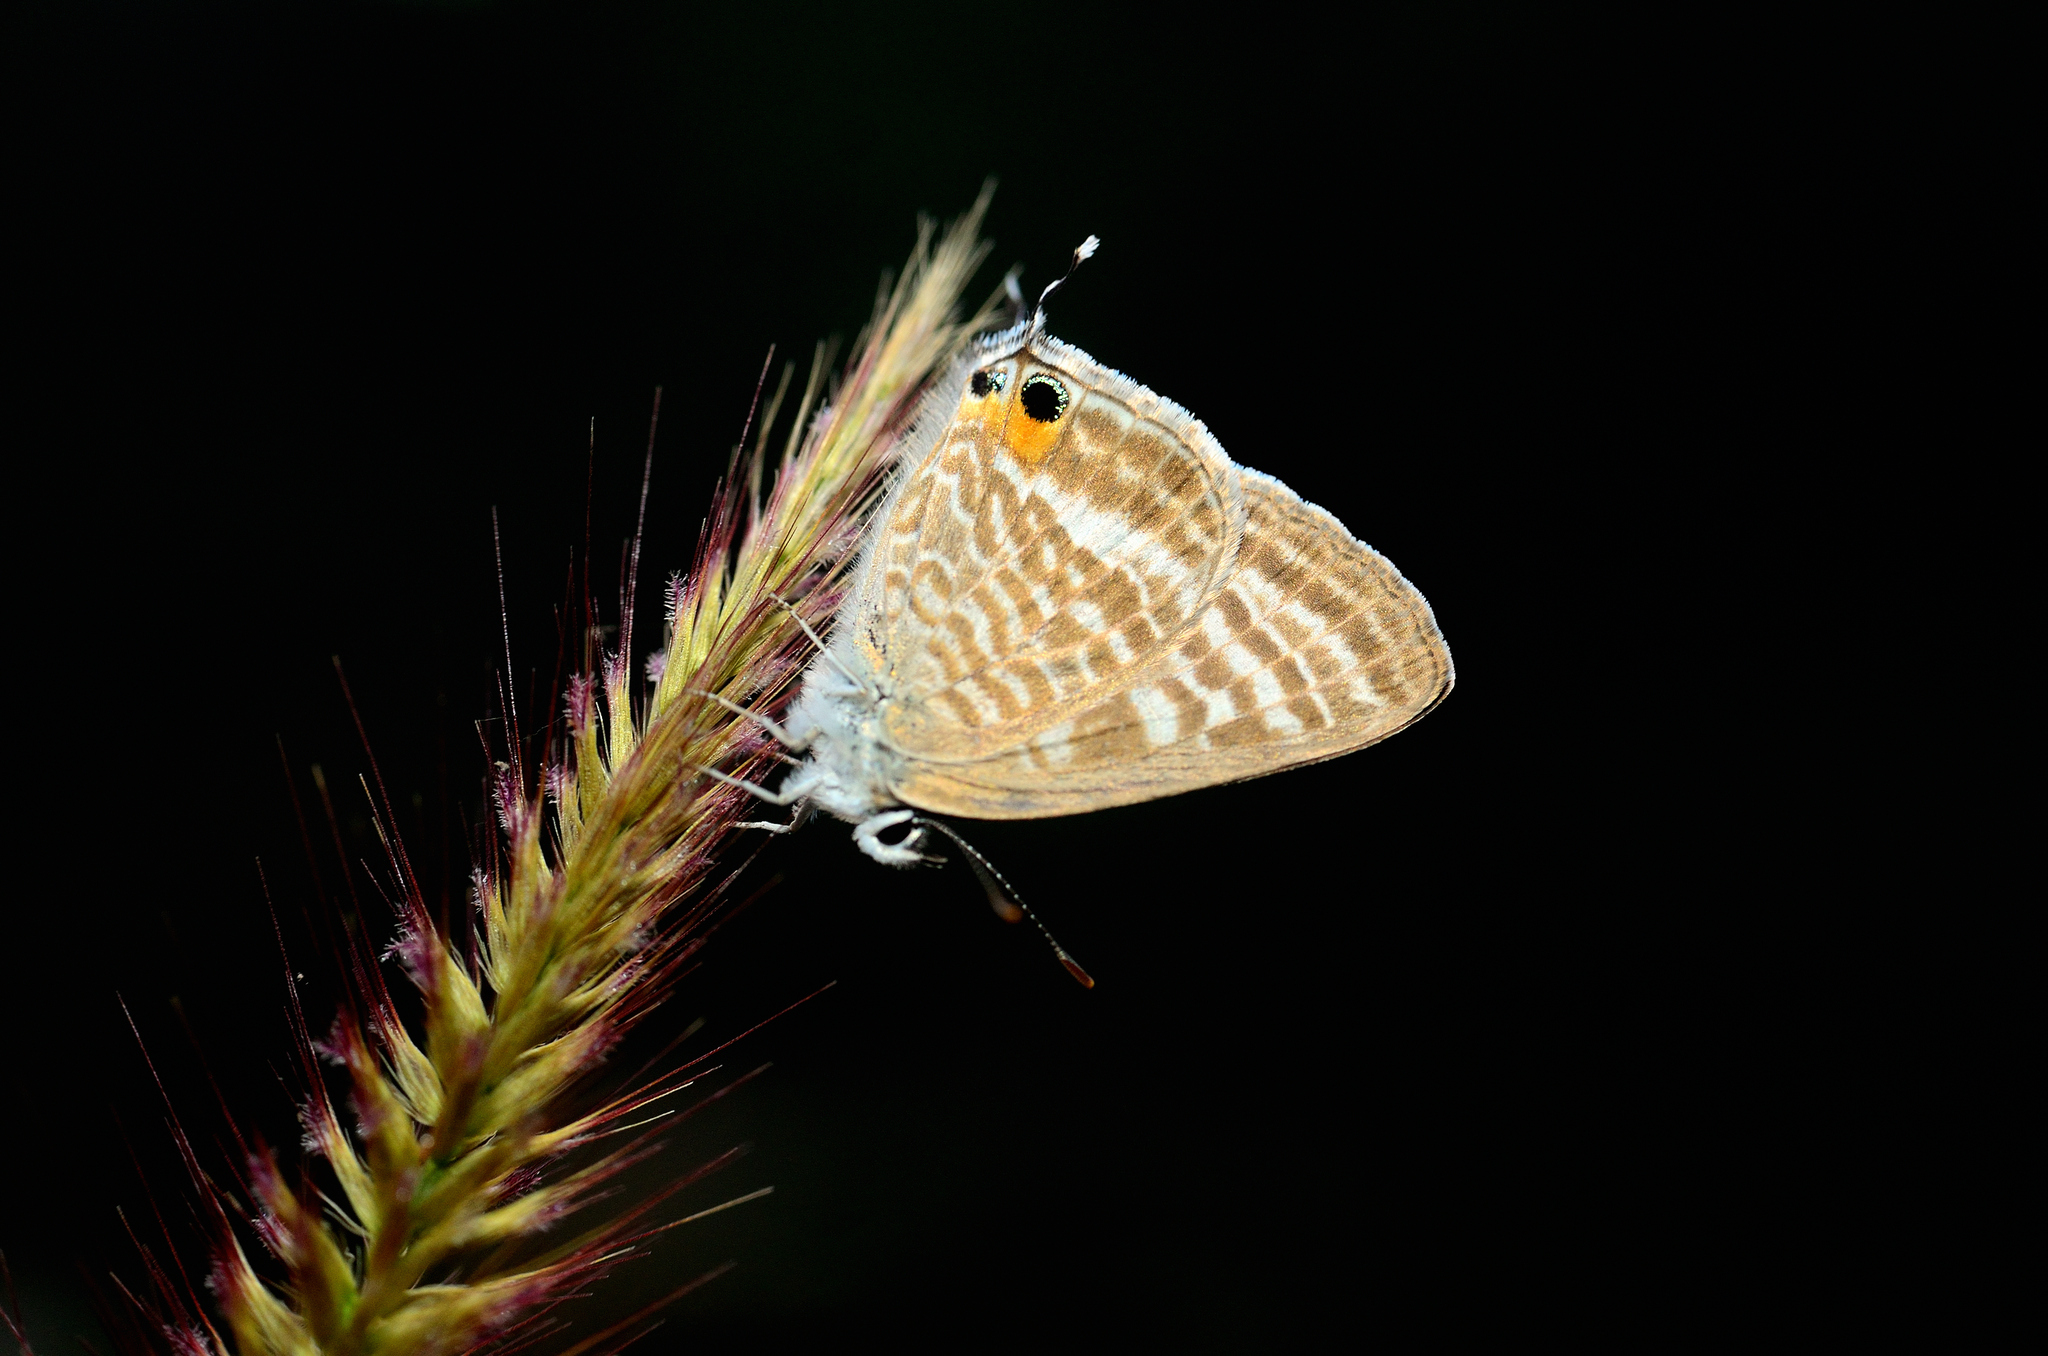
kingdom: Animalia
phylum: Arthropoda
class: Insecta
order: Lepidoptera
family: Lycaenidae
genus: Lampides
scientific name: Lampides boeticus
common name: Long-tailed blue
